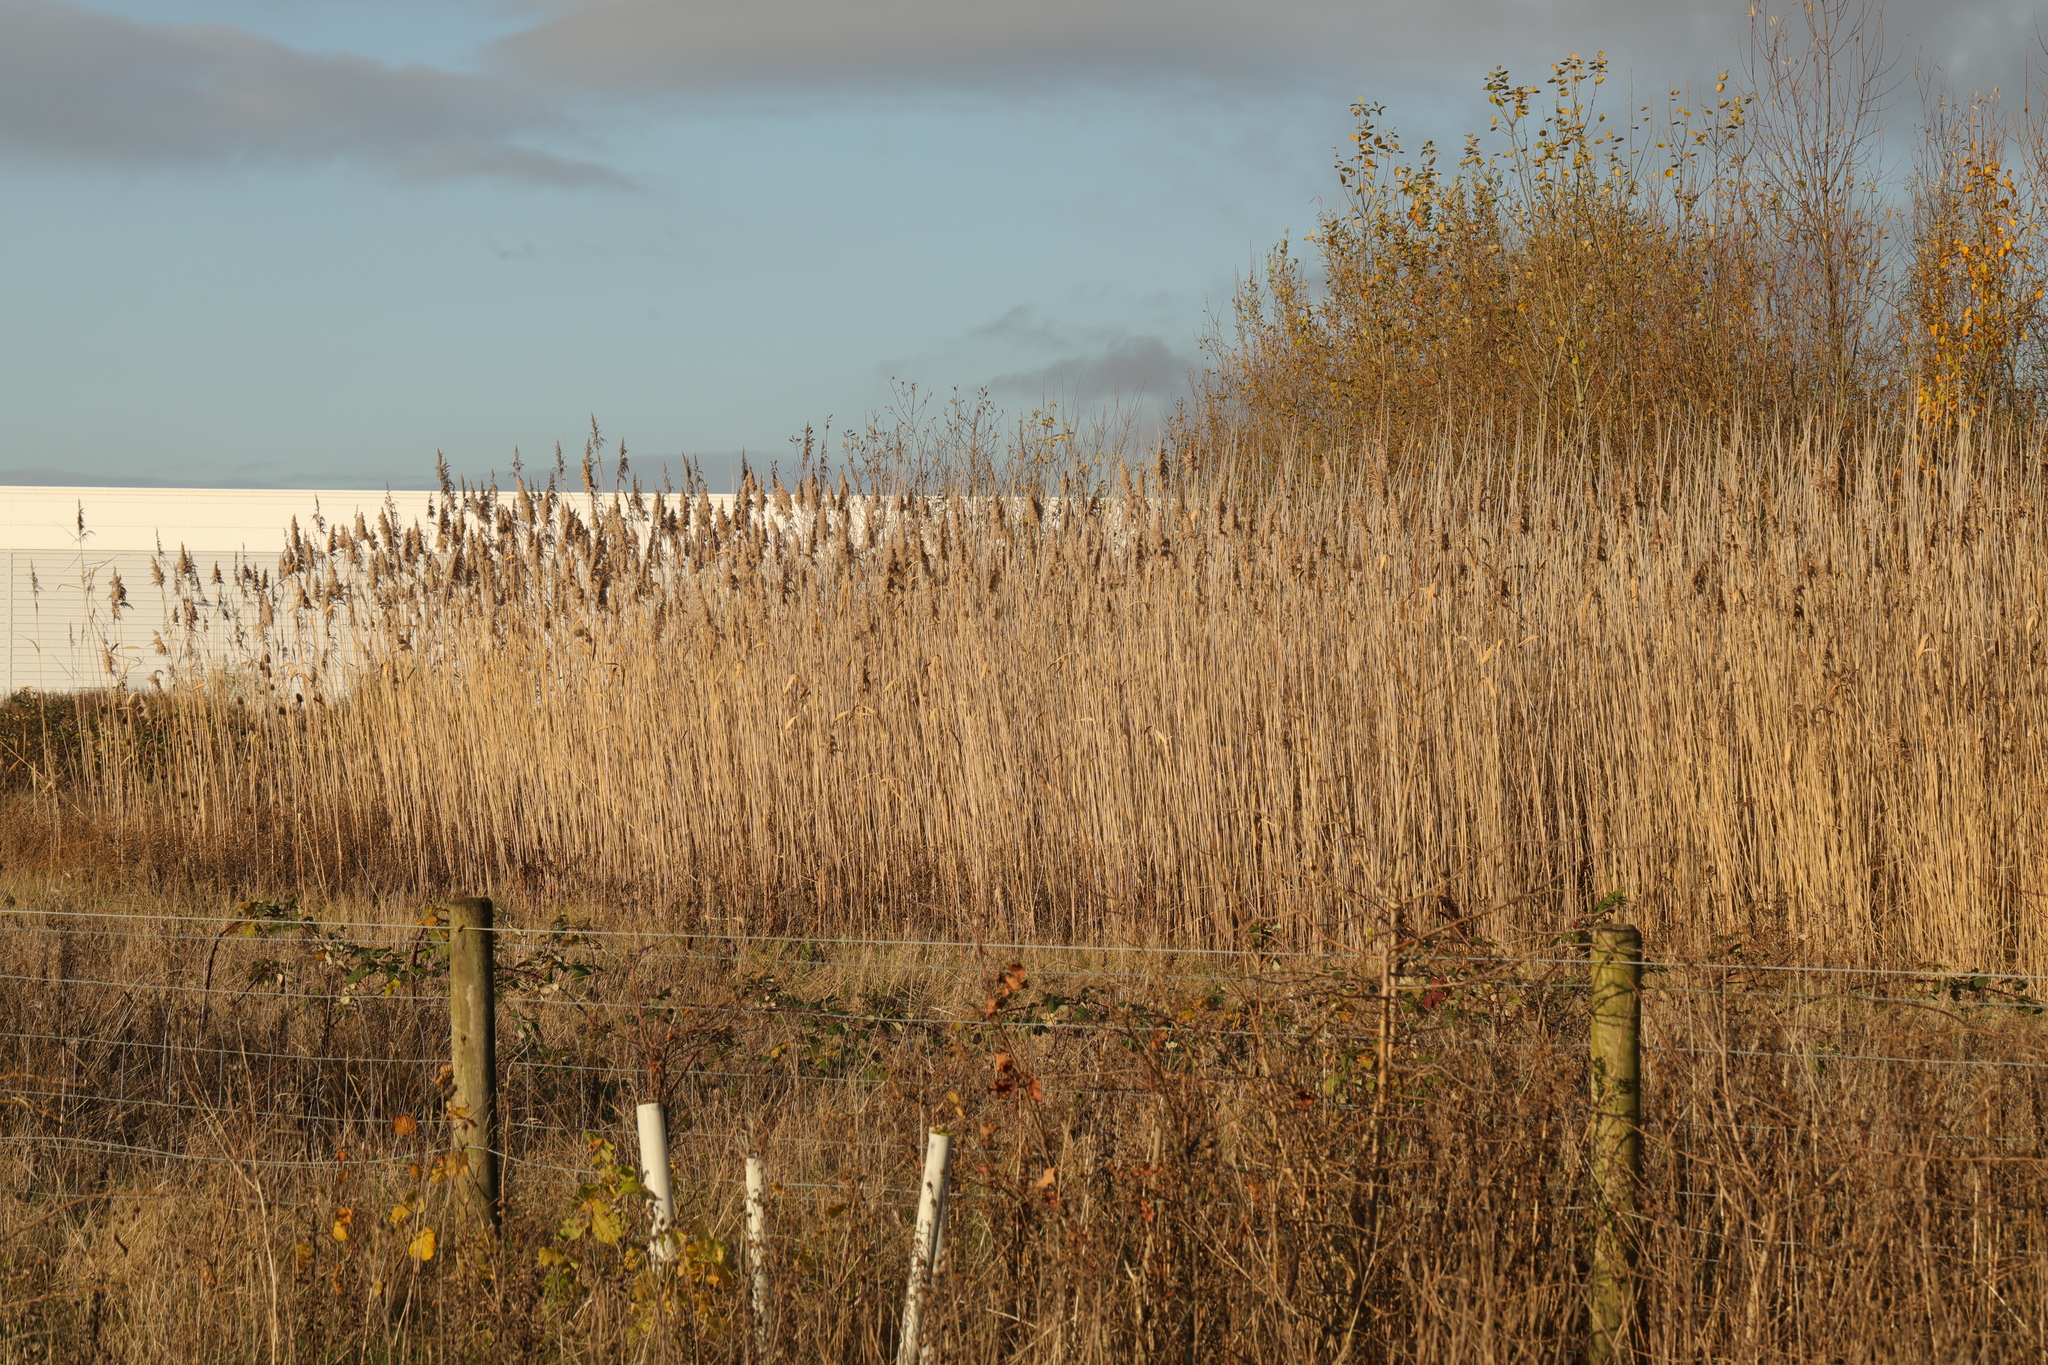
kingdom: Plantae
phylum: Tracheophyta
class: Liliopsida
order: Poales
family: Poaceae
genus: Phragmites
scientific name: Phragmites australis
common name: Common reed
